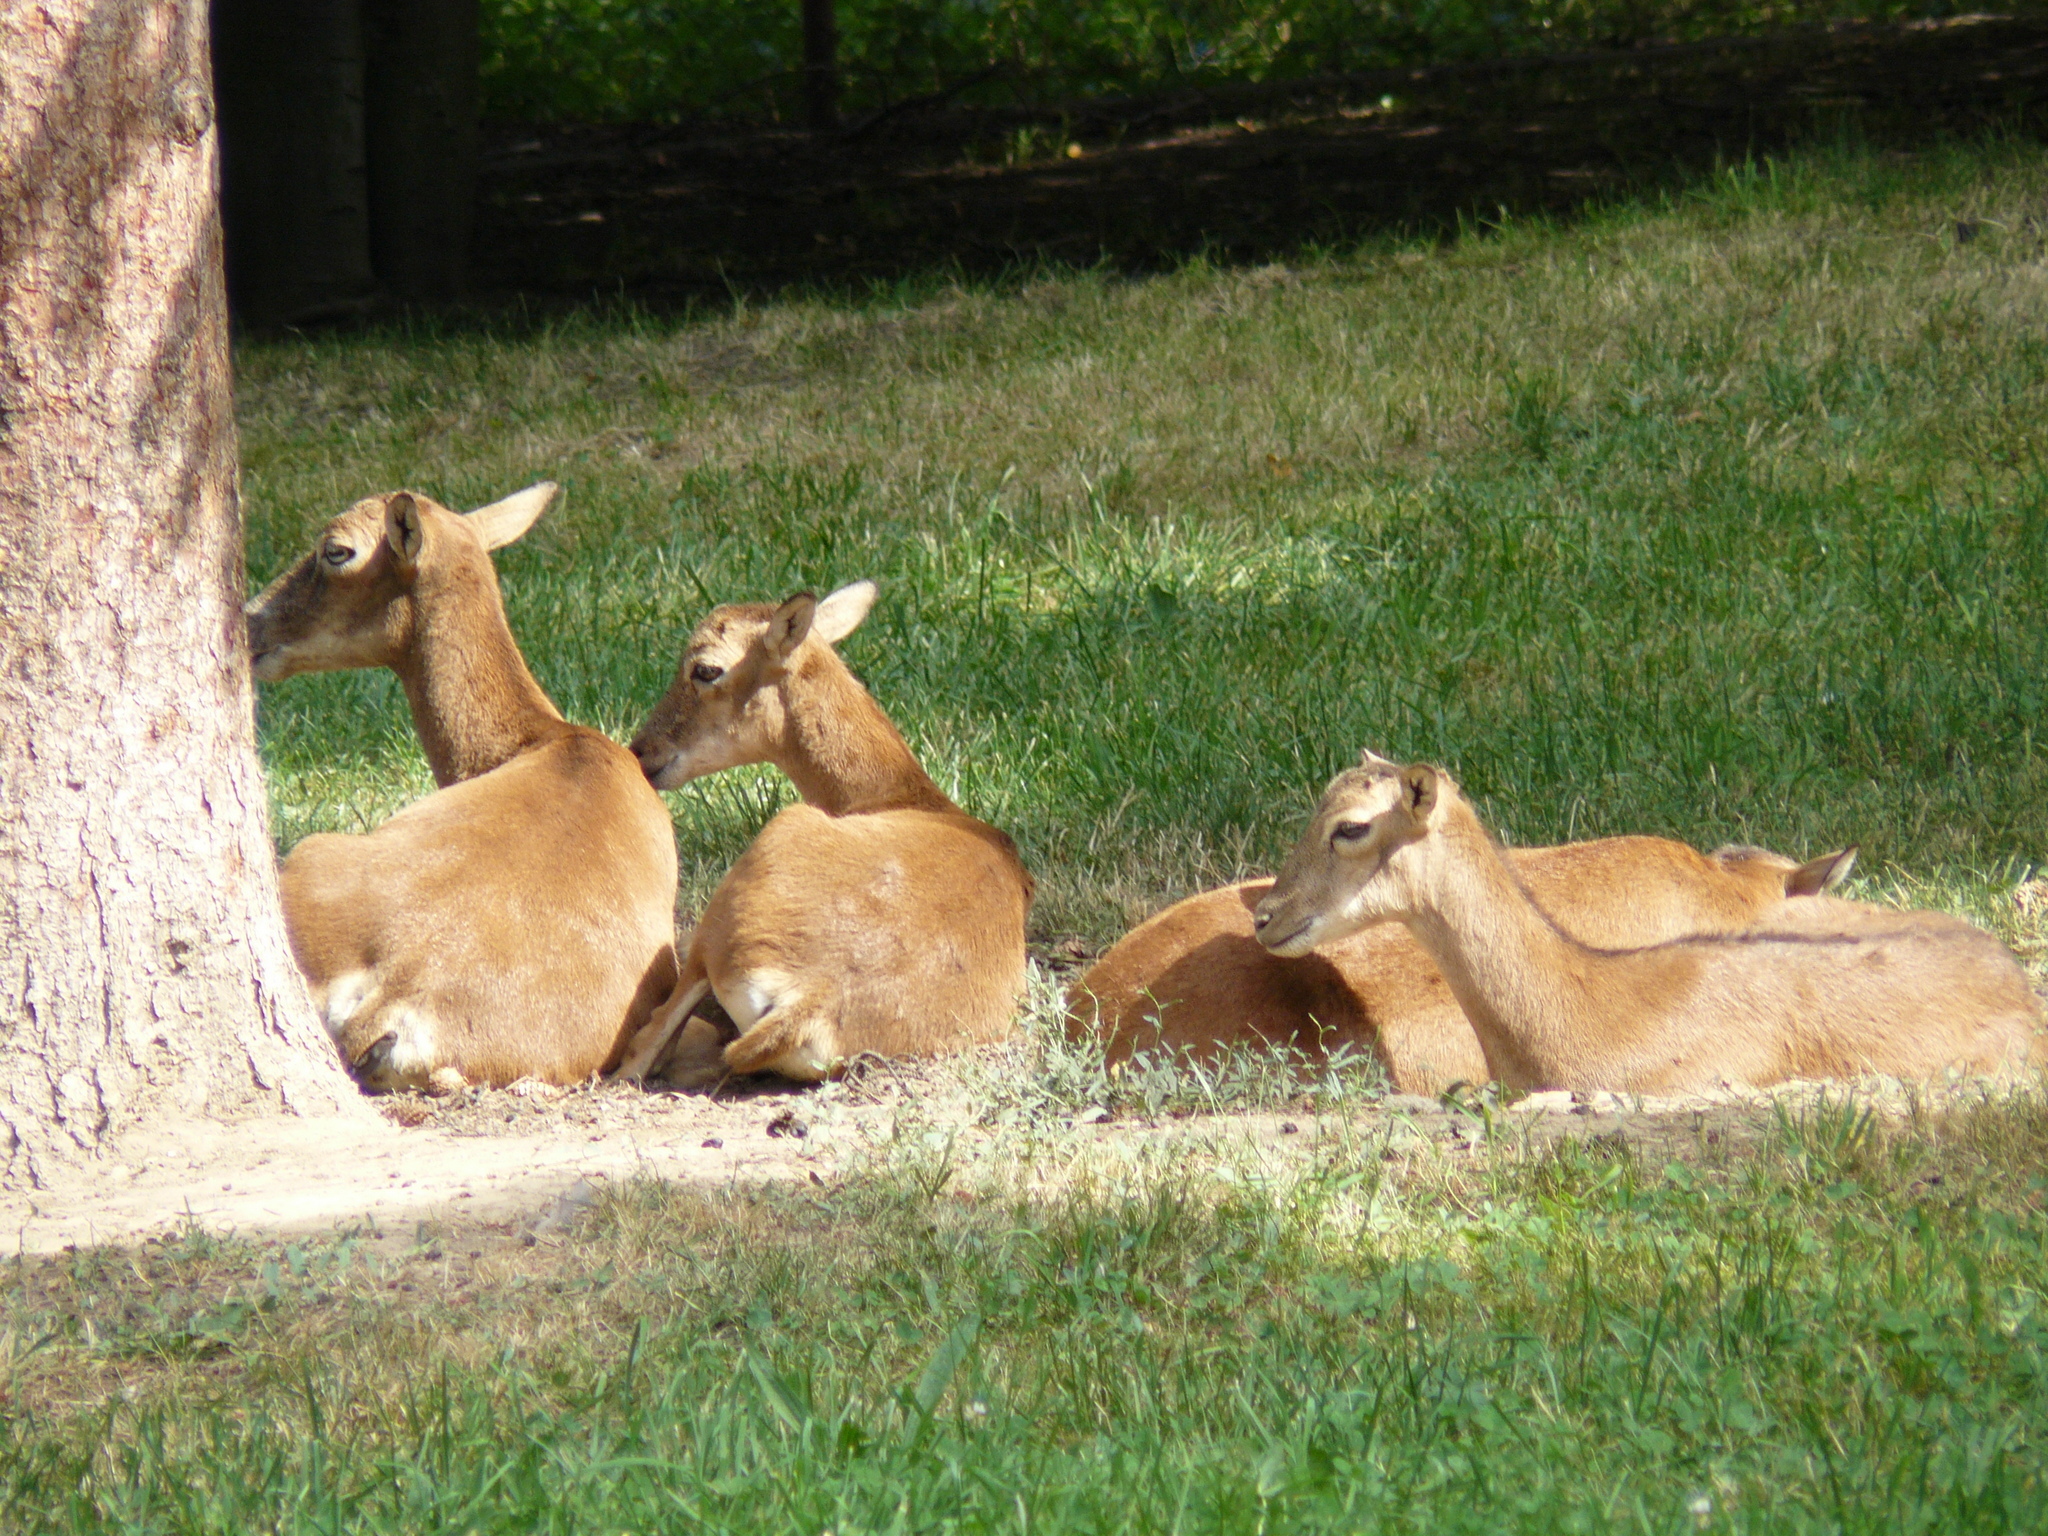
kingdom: Animalia
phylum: Chordata
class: Mammalia
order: Artiodactyla
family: Bovidae
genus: Ovis
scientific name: Ovis aries
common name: Domestic sheep
